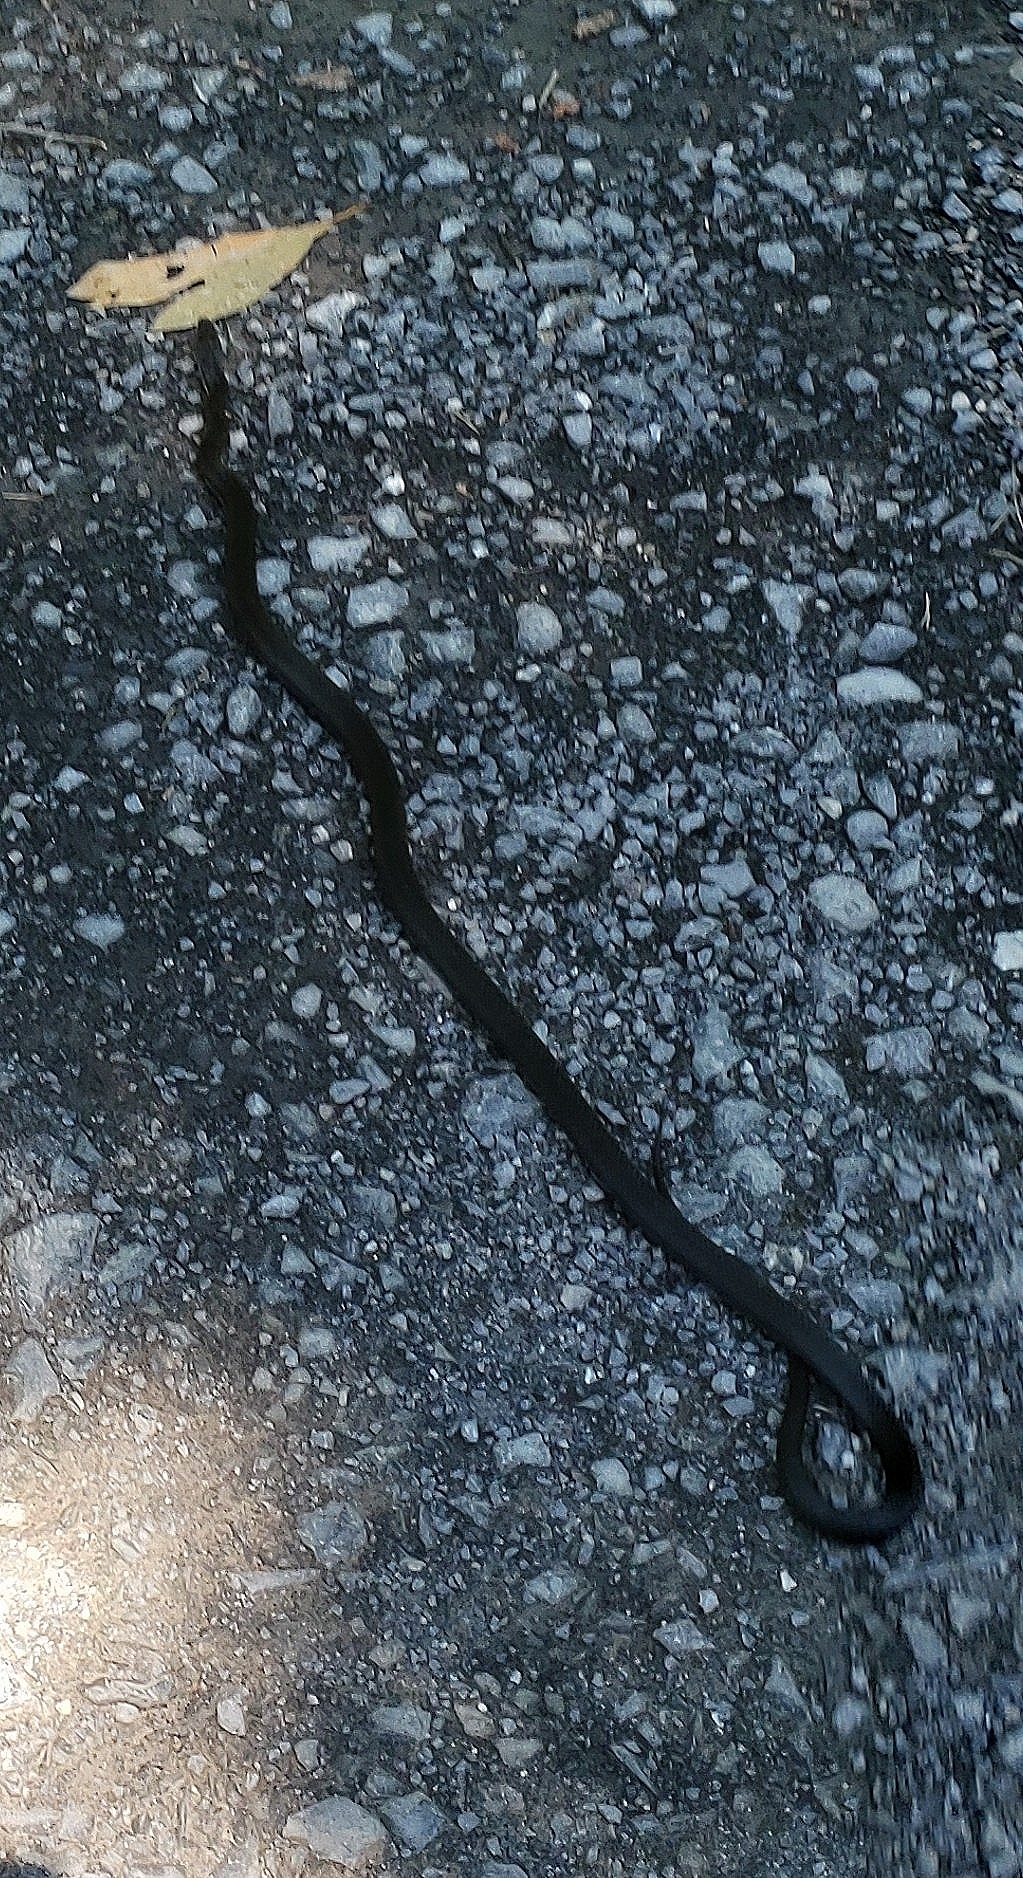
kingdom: Animalia
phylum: Chordata
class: Squamata
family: Colubridae
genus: Pantherophis
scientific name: Pantherophis alleghaniensis
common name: Eastern rat snake
